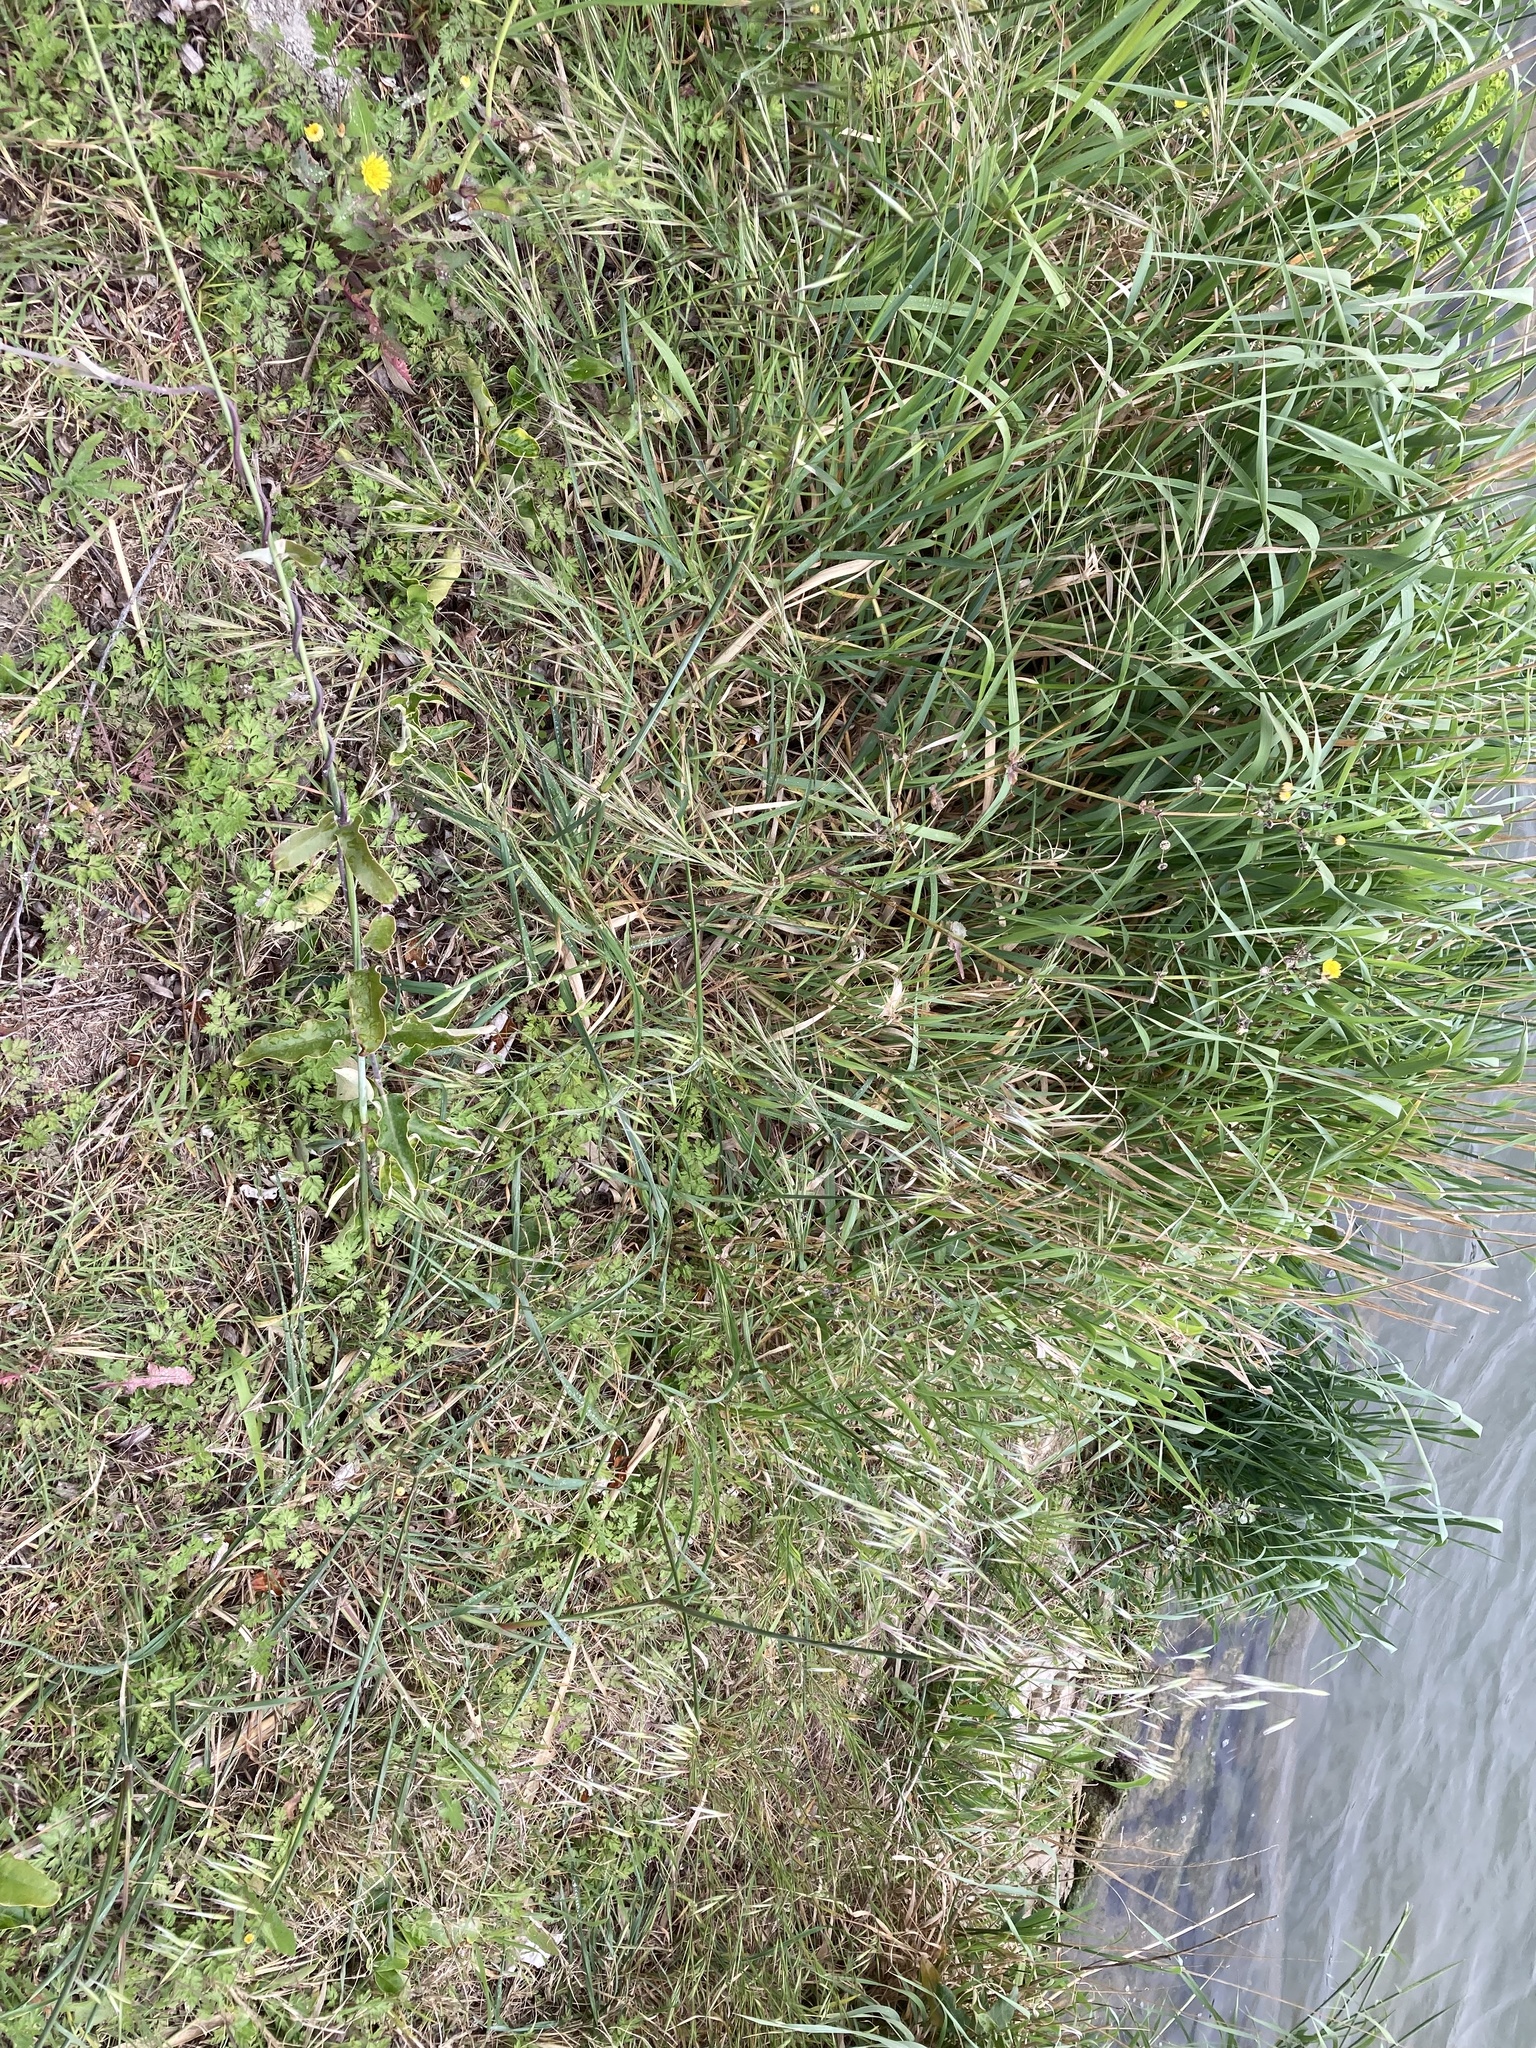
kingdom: Plantae
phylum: Tracheophyta
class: Magnoliopsida
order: Gentianales
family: Apocynaceae
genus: Araujia
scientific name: Araujia sericifera
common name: White bladderflower
